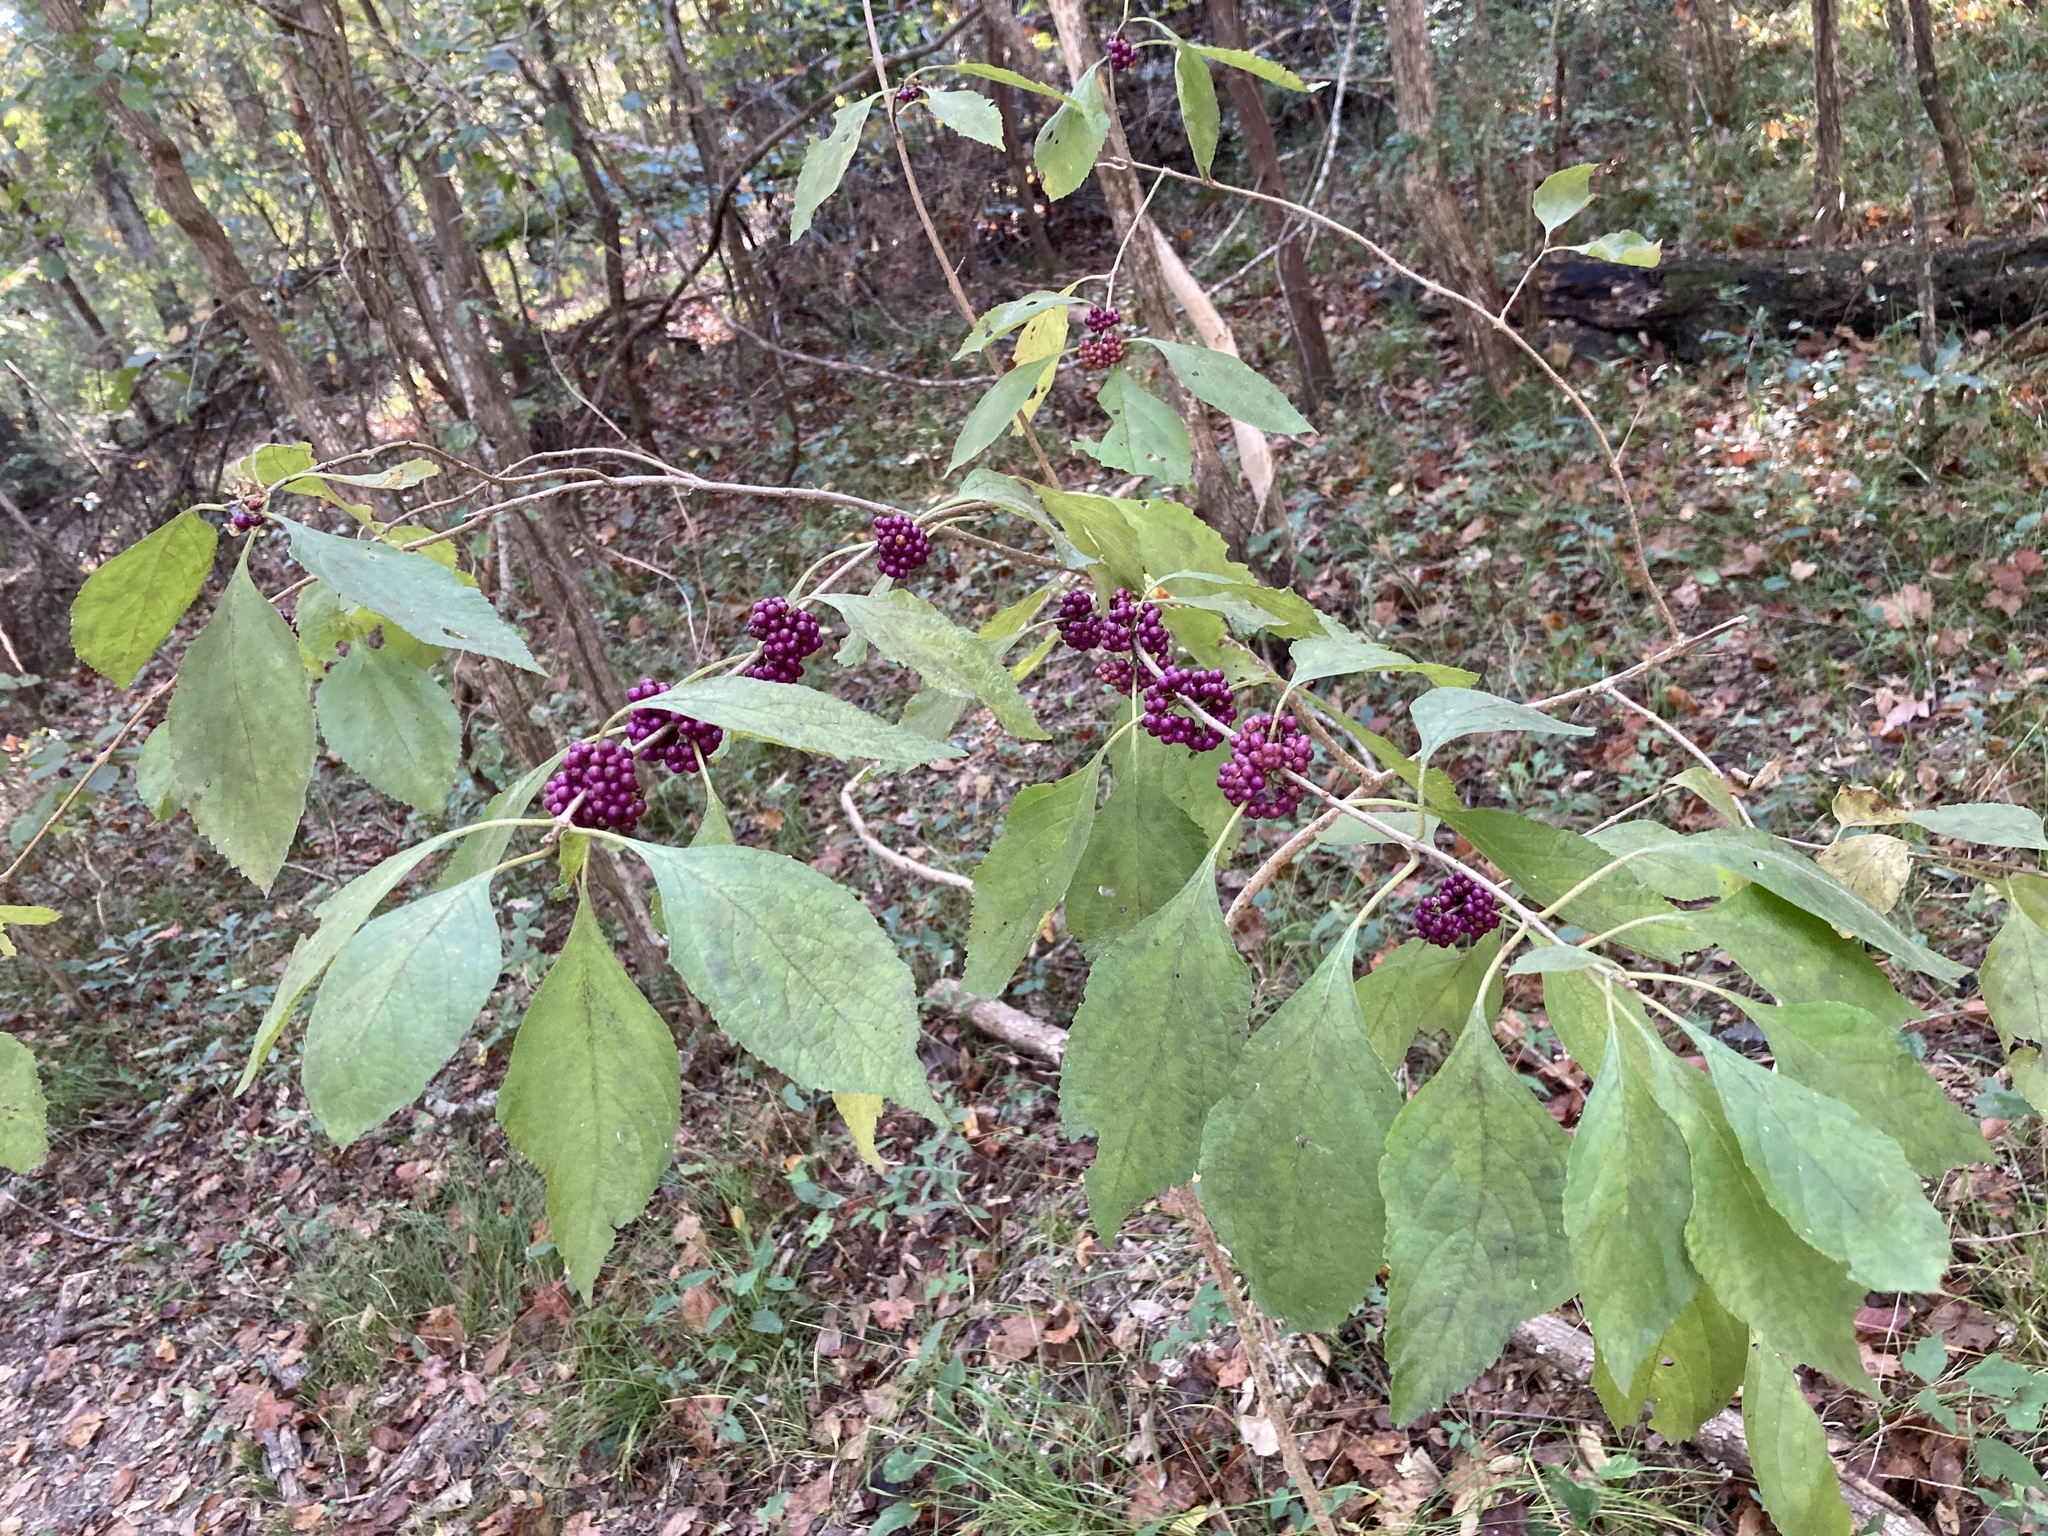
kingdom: Plantae
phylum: Tracheophyta
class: Magnoliopsida
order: Lamiales
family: Lamiaceae
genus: Callicarpa
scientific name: Callicarpa americana
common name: American beautyberry
